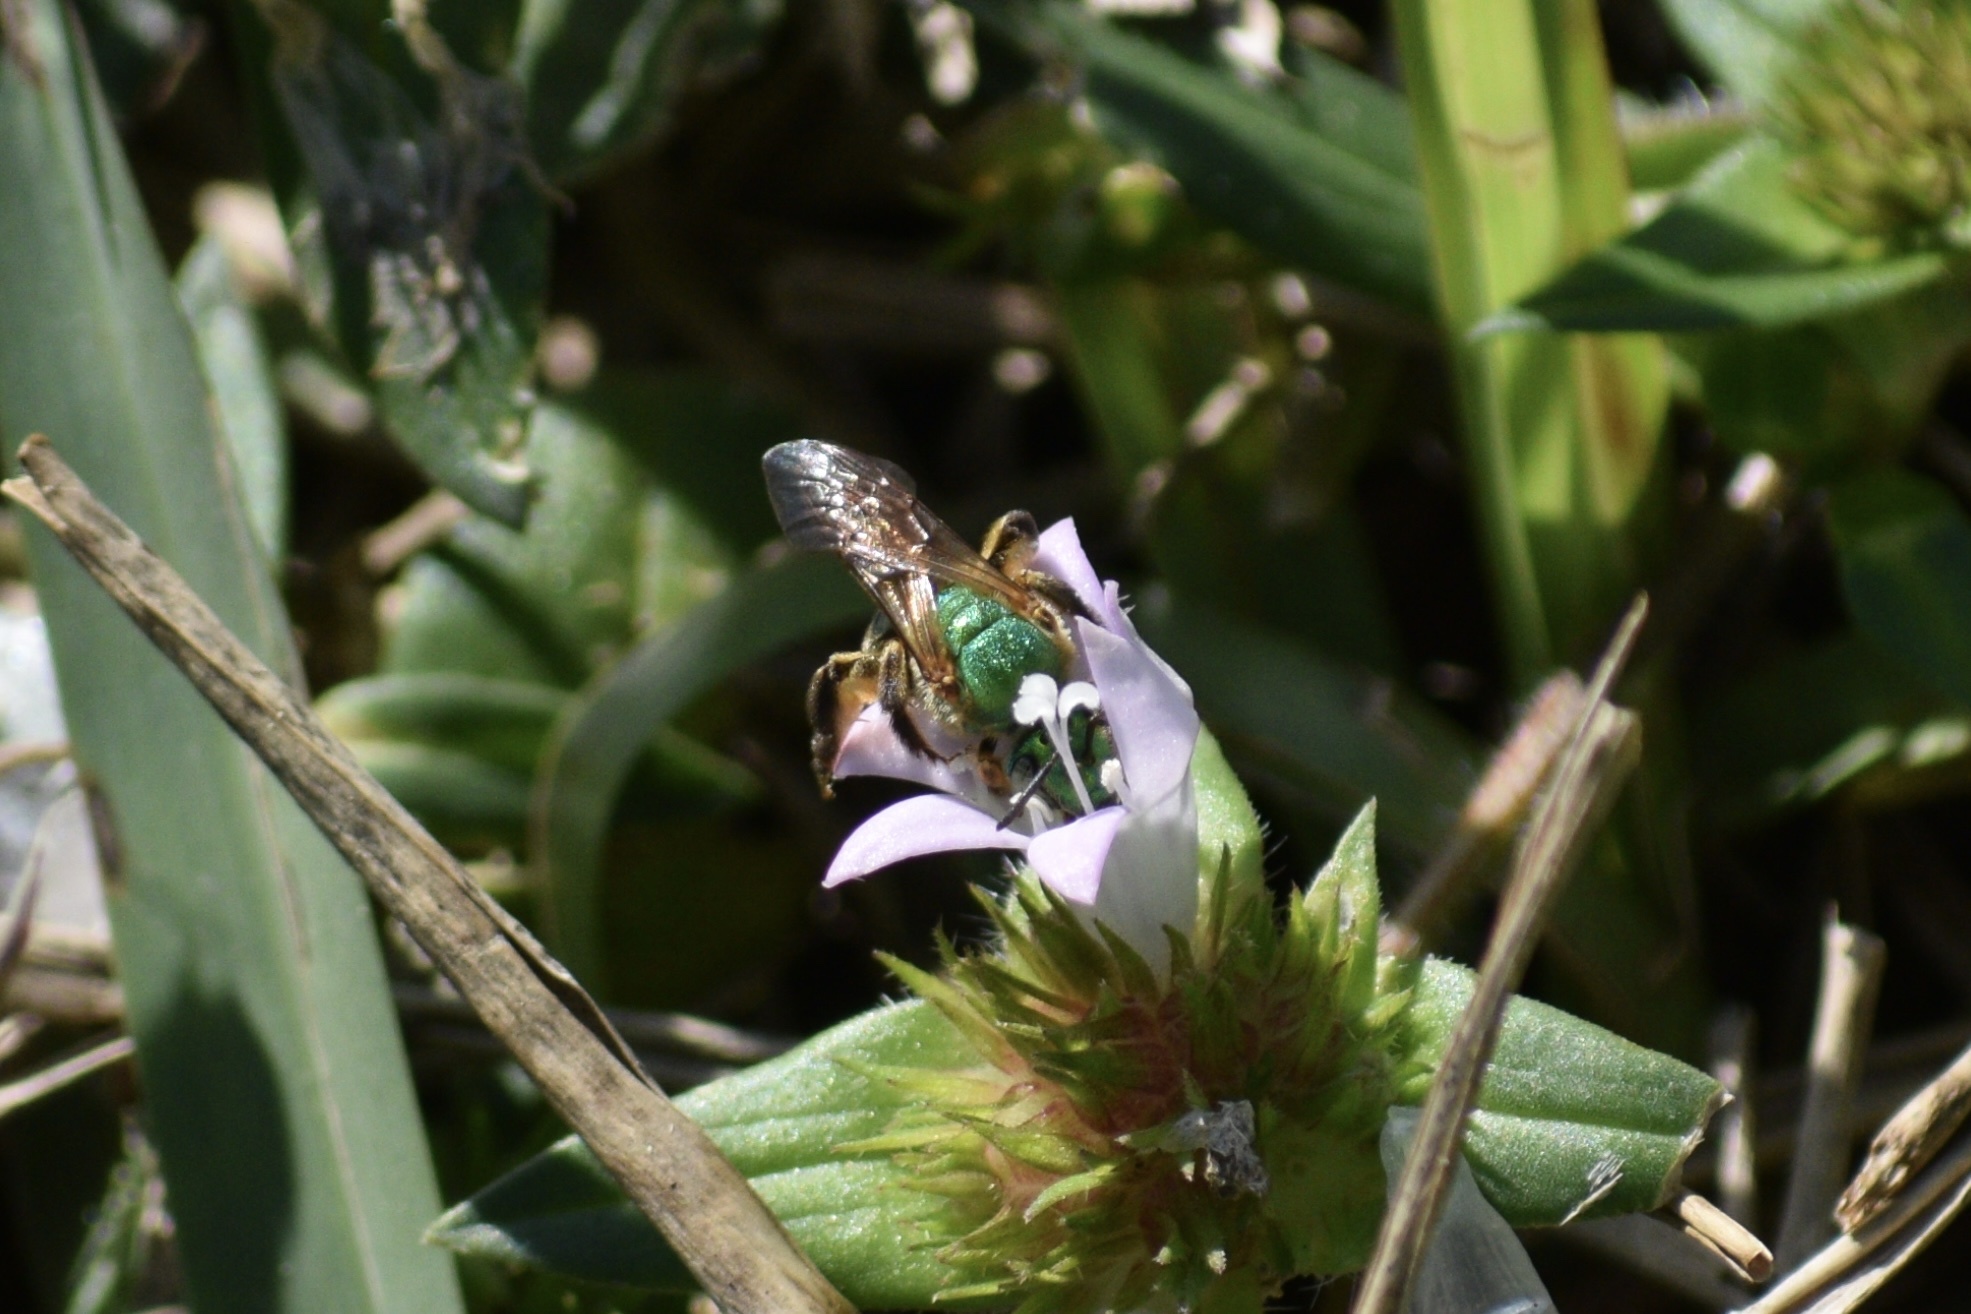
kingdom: Animalia
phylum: Arthropoda
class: Insecta
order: Hymenoptera
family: Halictidae
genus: Agapostemon
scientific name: Agapostemon splendens
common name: Brown-winged striped sweat bee
